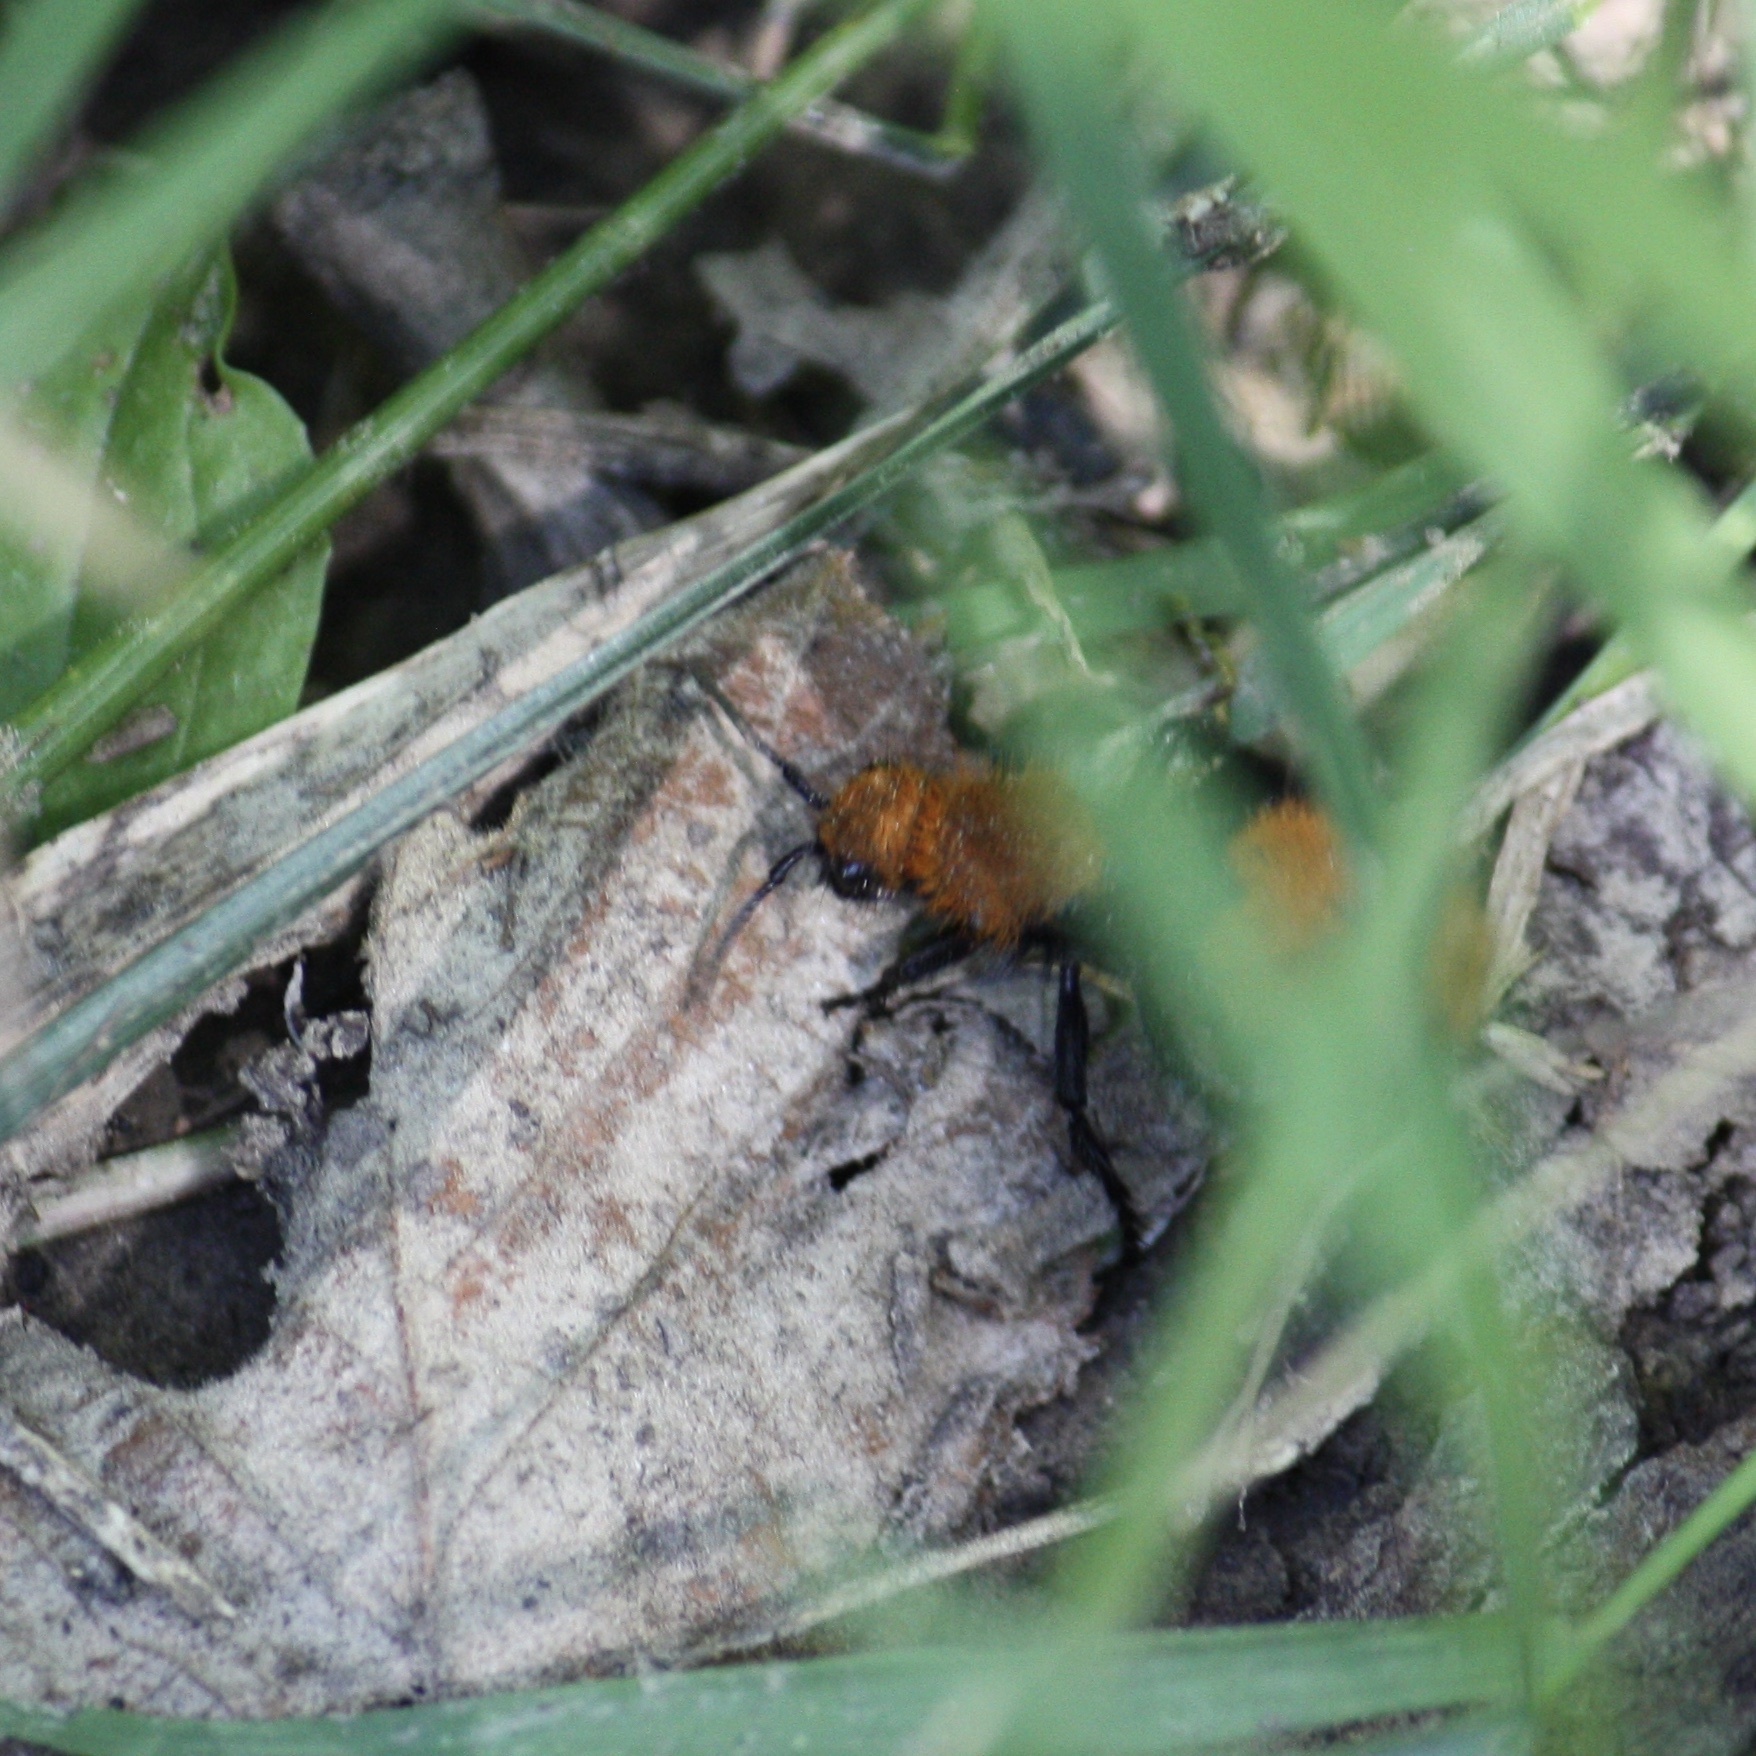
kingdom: Animalia
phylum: Arthropoda
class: Insecta
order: Hymenoptera
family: Mutillidae
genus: Dasymutilla
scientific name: Dasymutilla occidentalis
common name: Common eastern velvet ant
